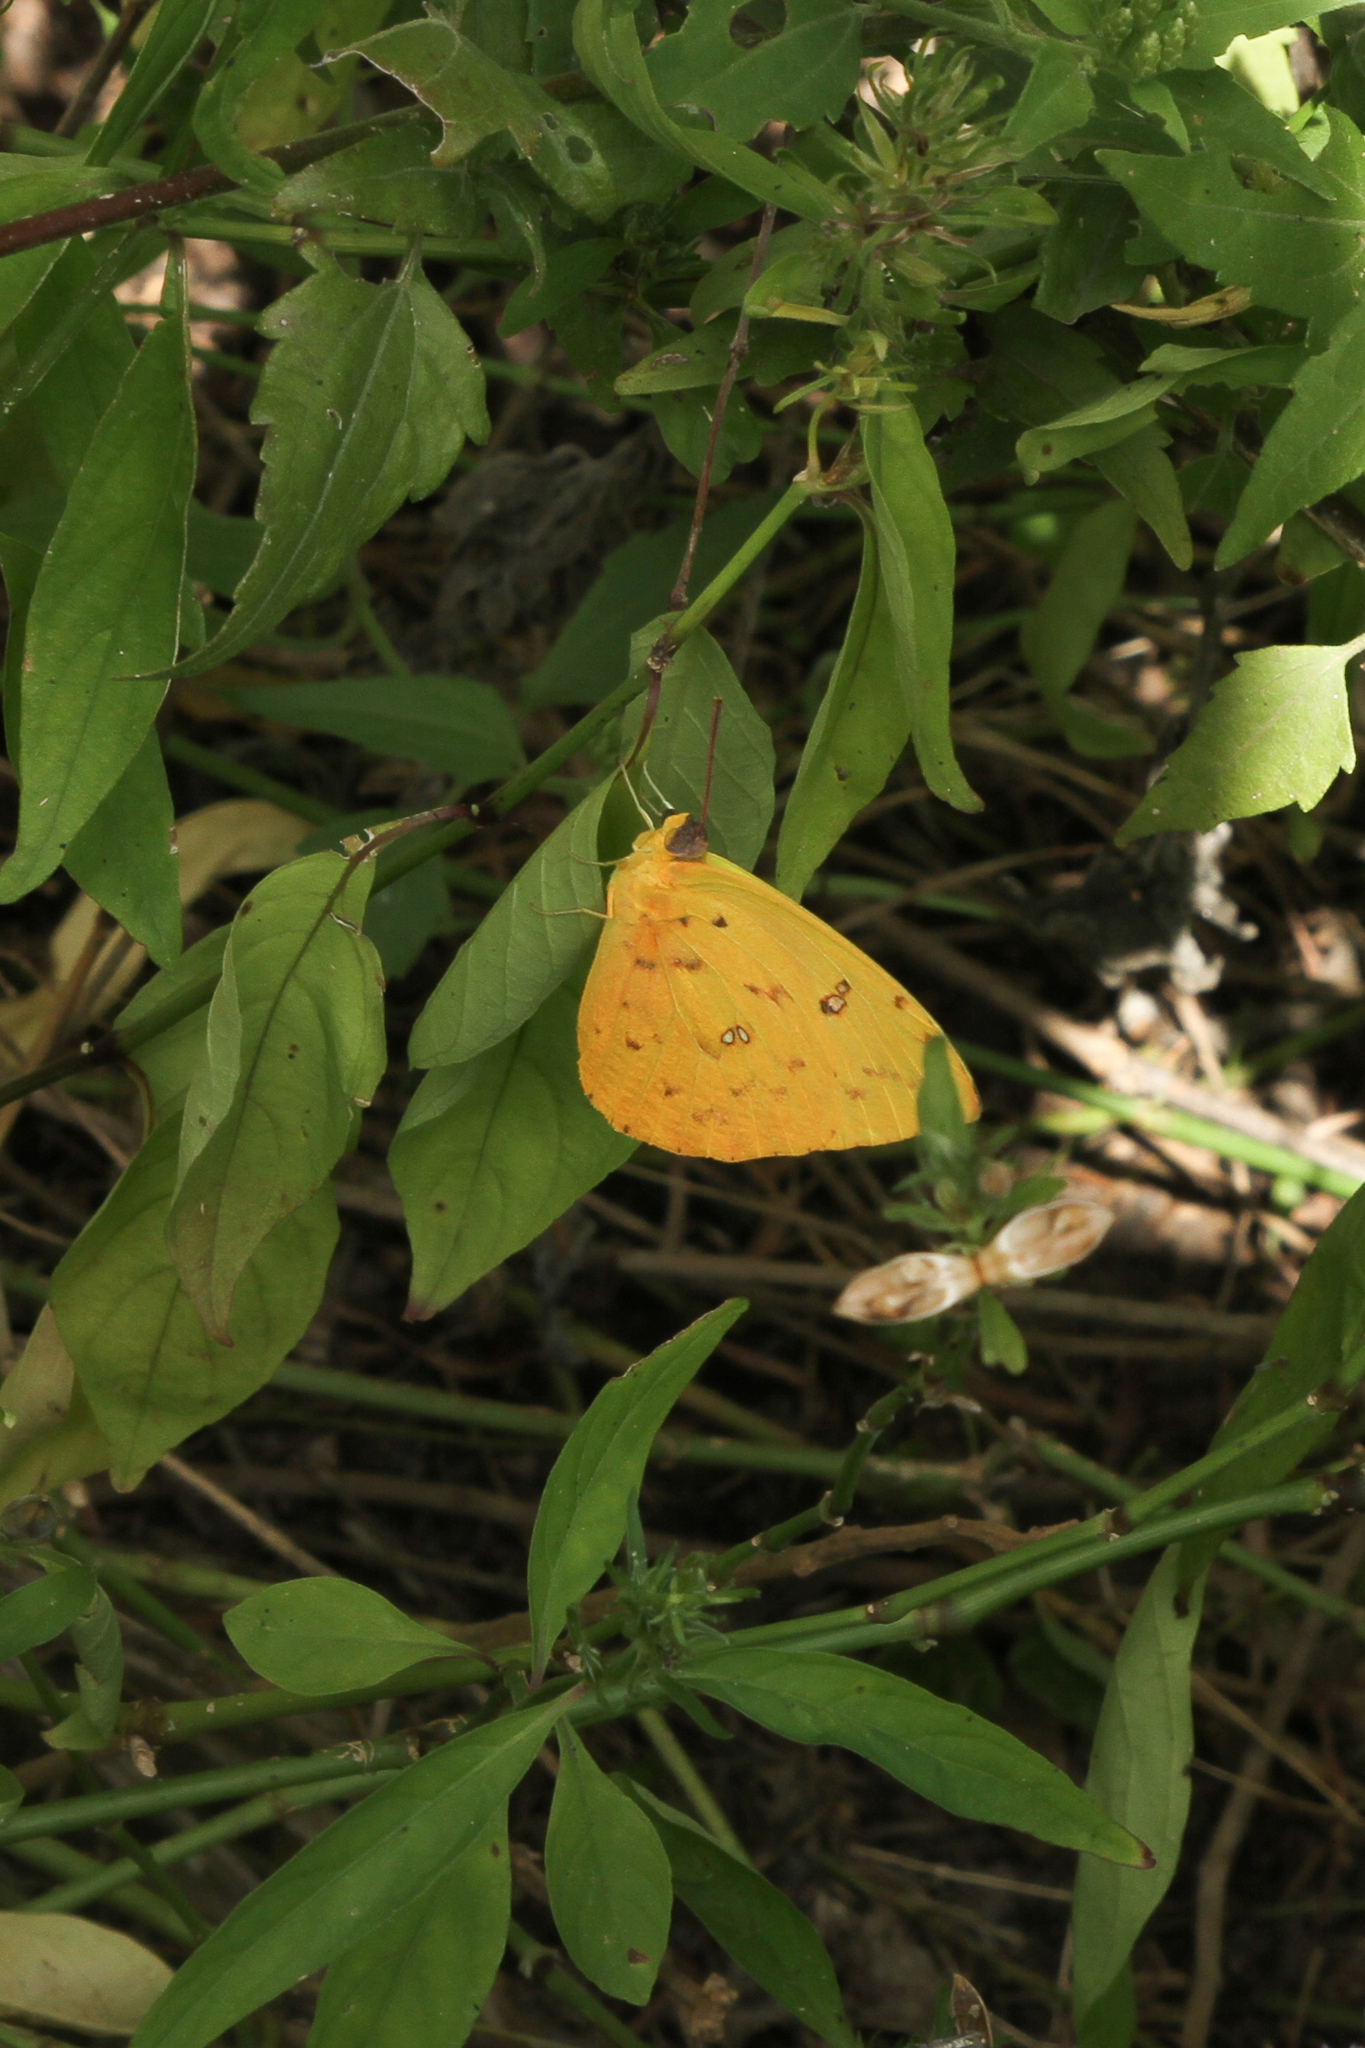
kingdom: Animalia
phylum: Arthropoda
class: Insecta
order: Lepidoptera
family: Pieridae
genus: Phoebis
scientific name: Phoebis philea
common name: Orange-barred giant sulphur
